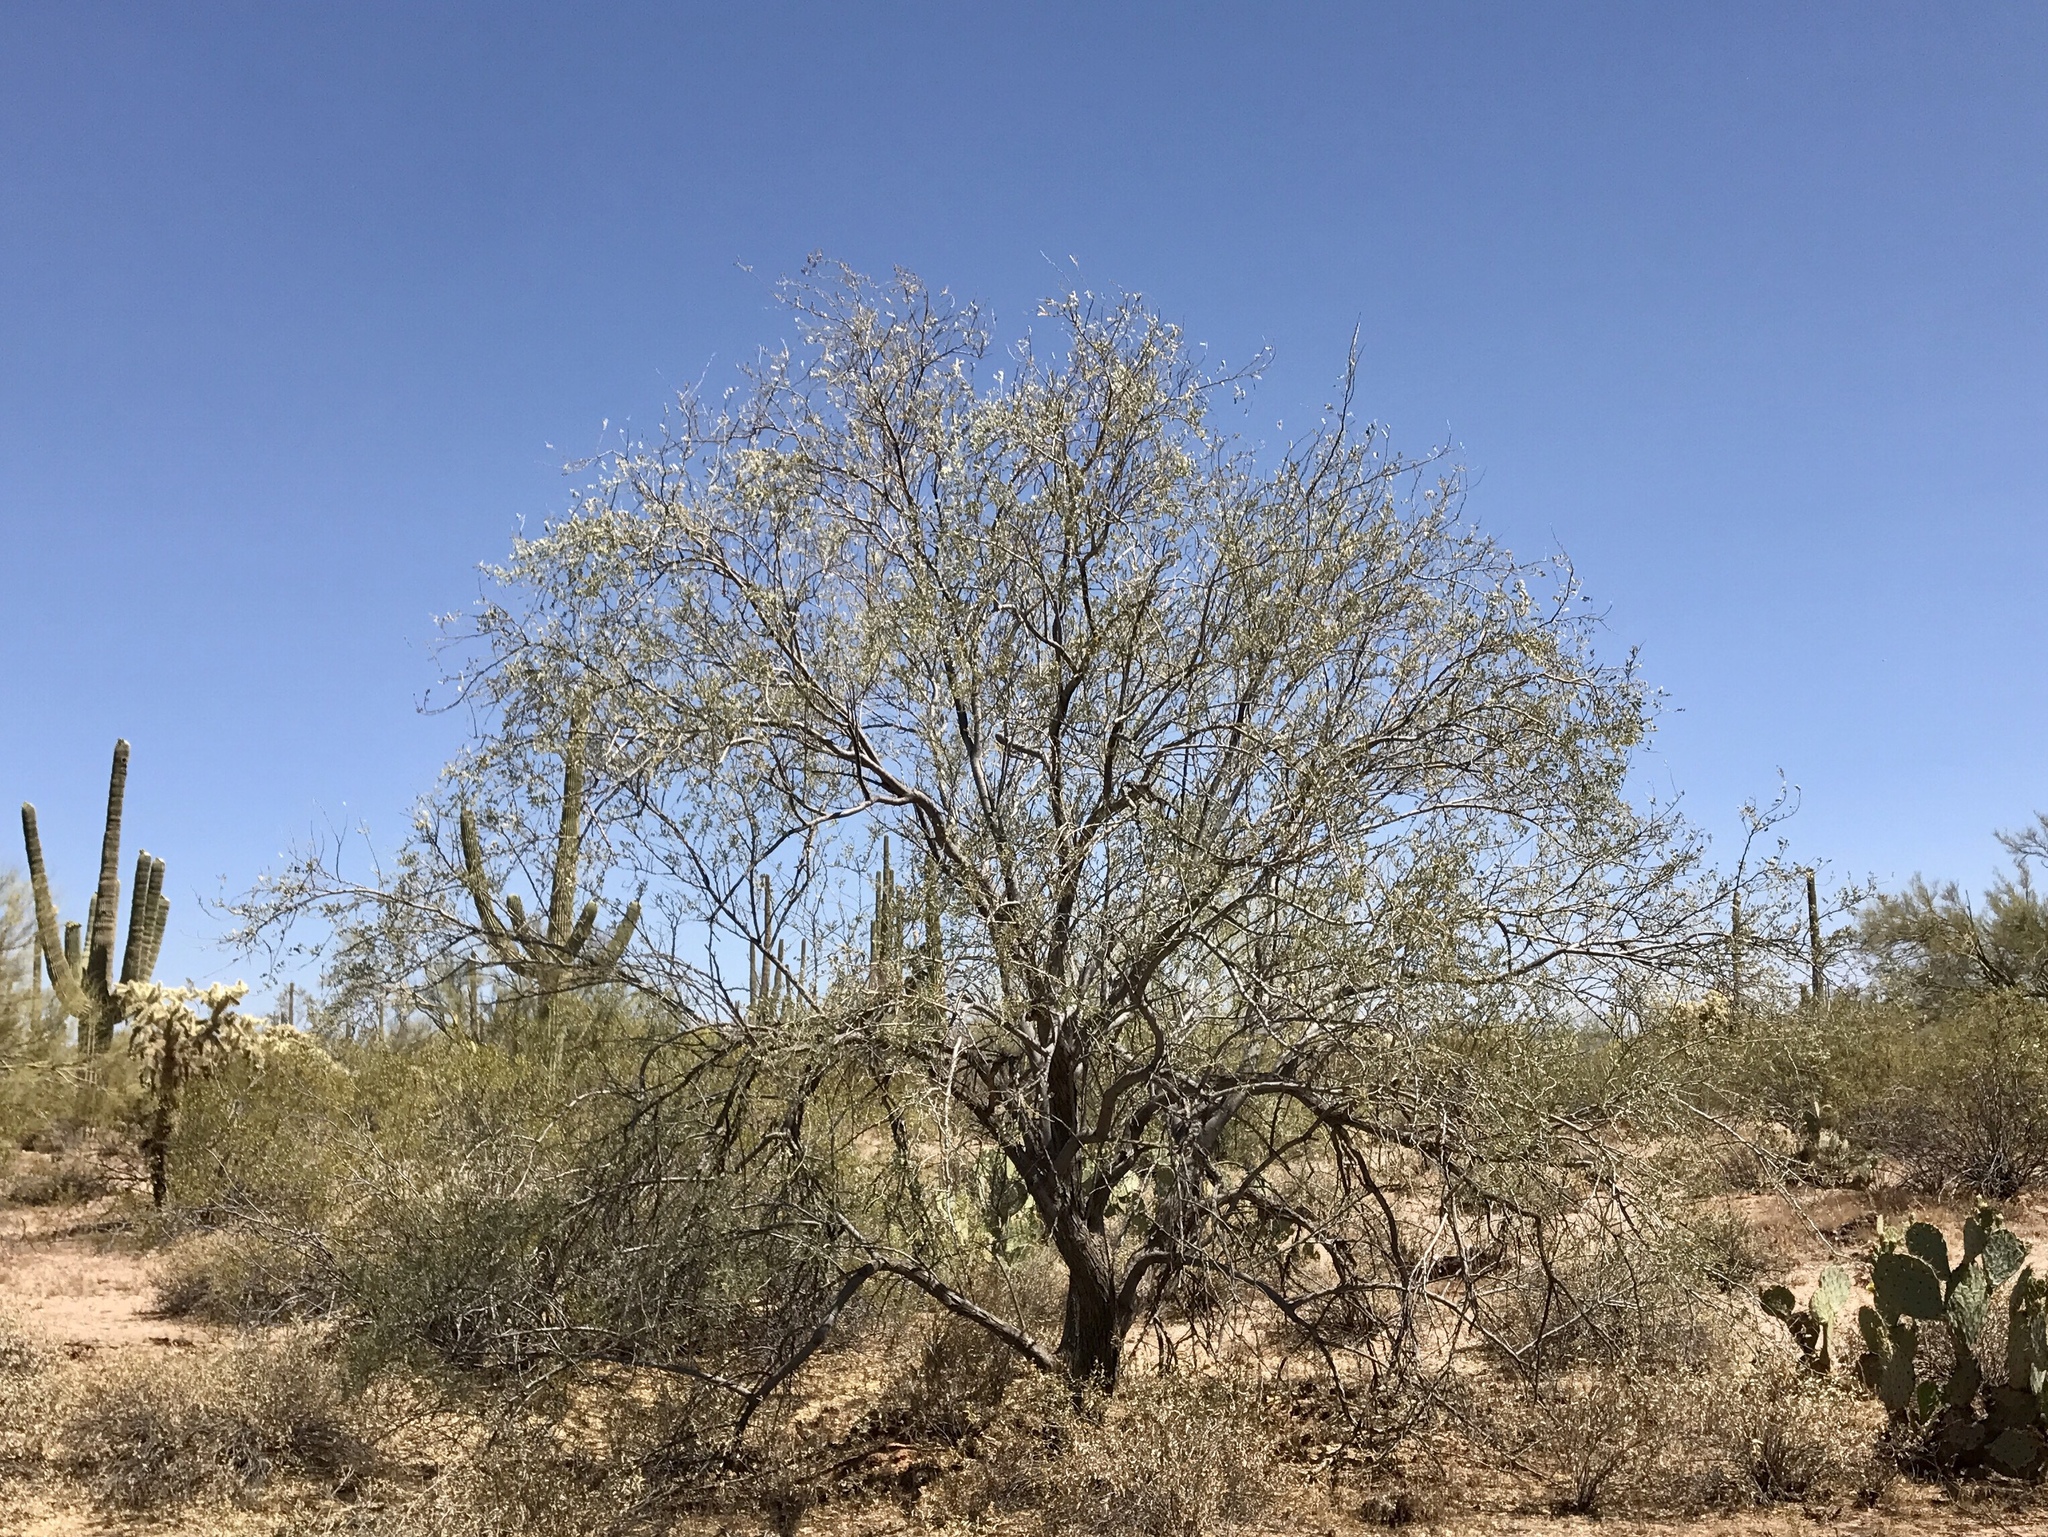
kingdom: Plantae
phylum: Tracheophyta
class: Magnoliopsida
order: Fabales
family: Fabaceae
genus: Olneya
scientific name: Olneya tesota
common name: Desert ironwood
